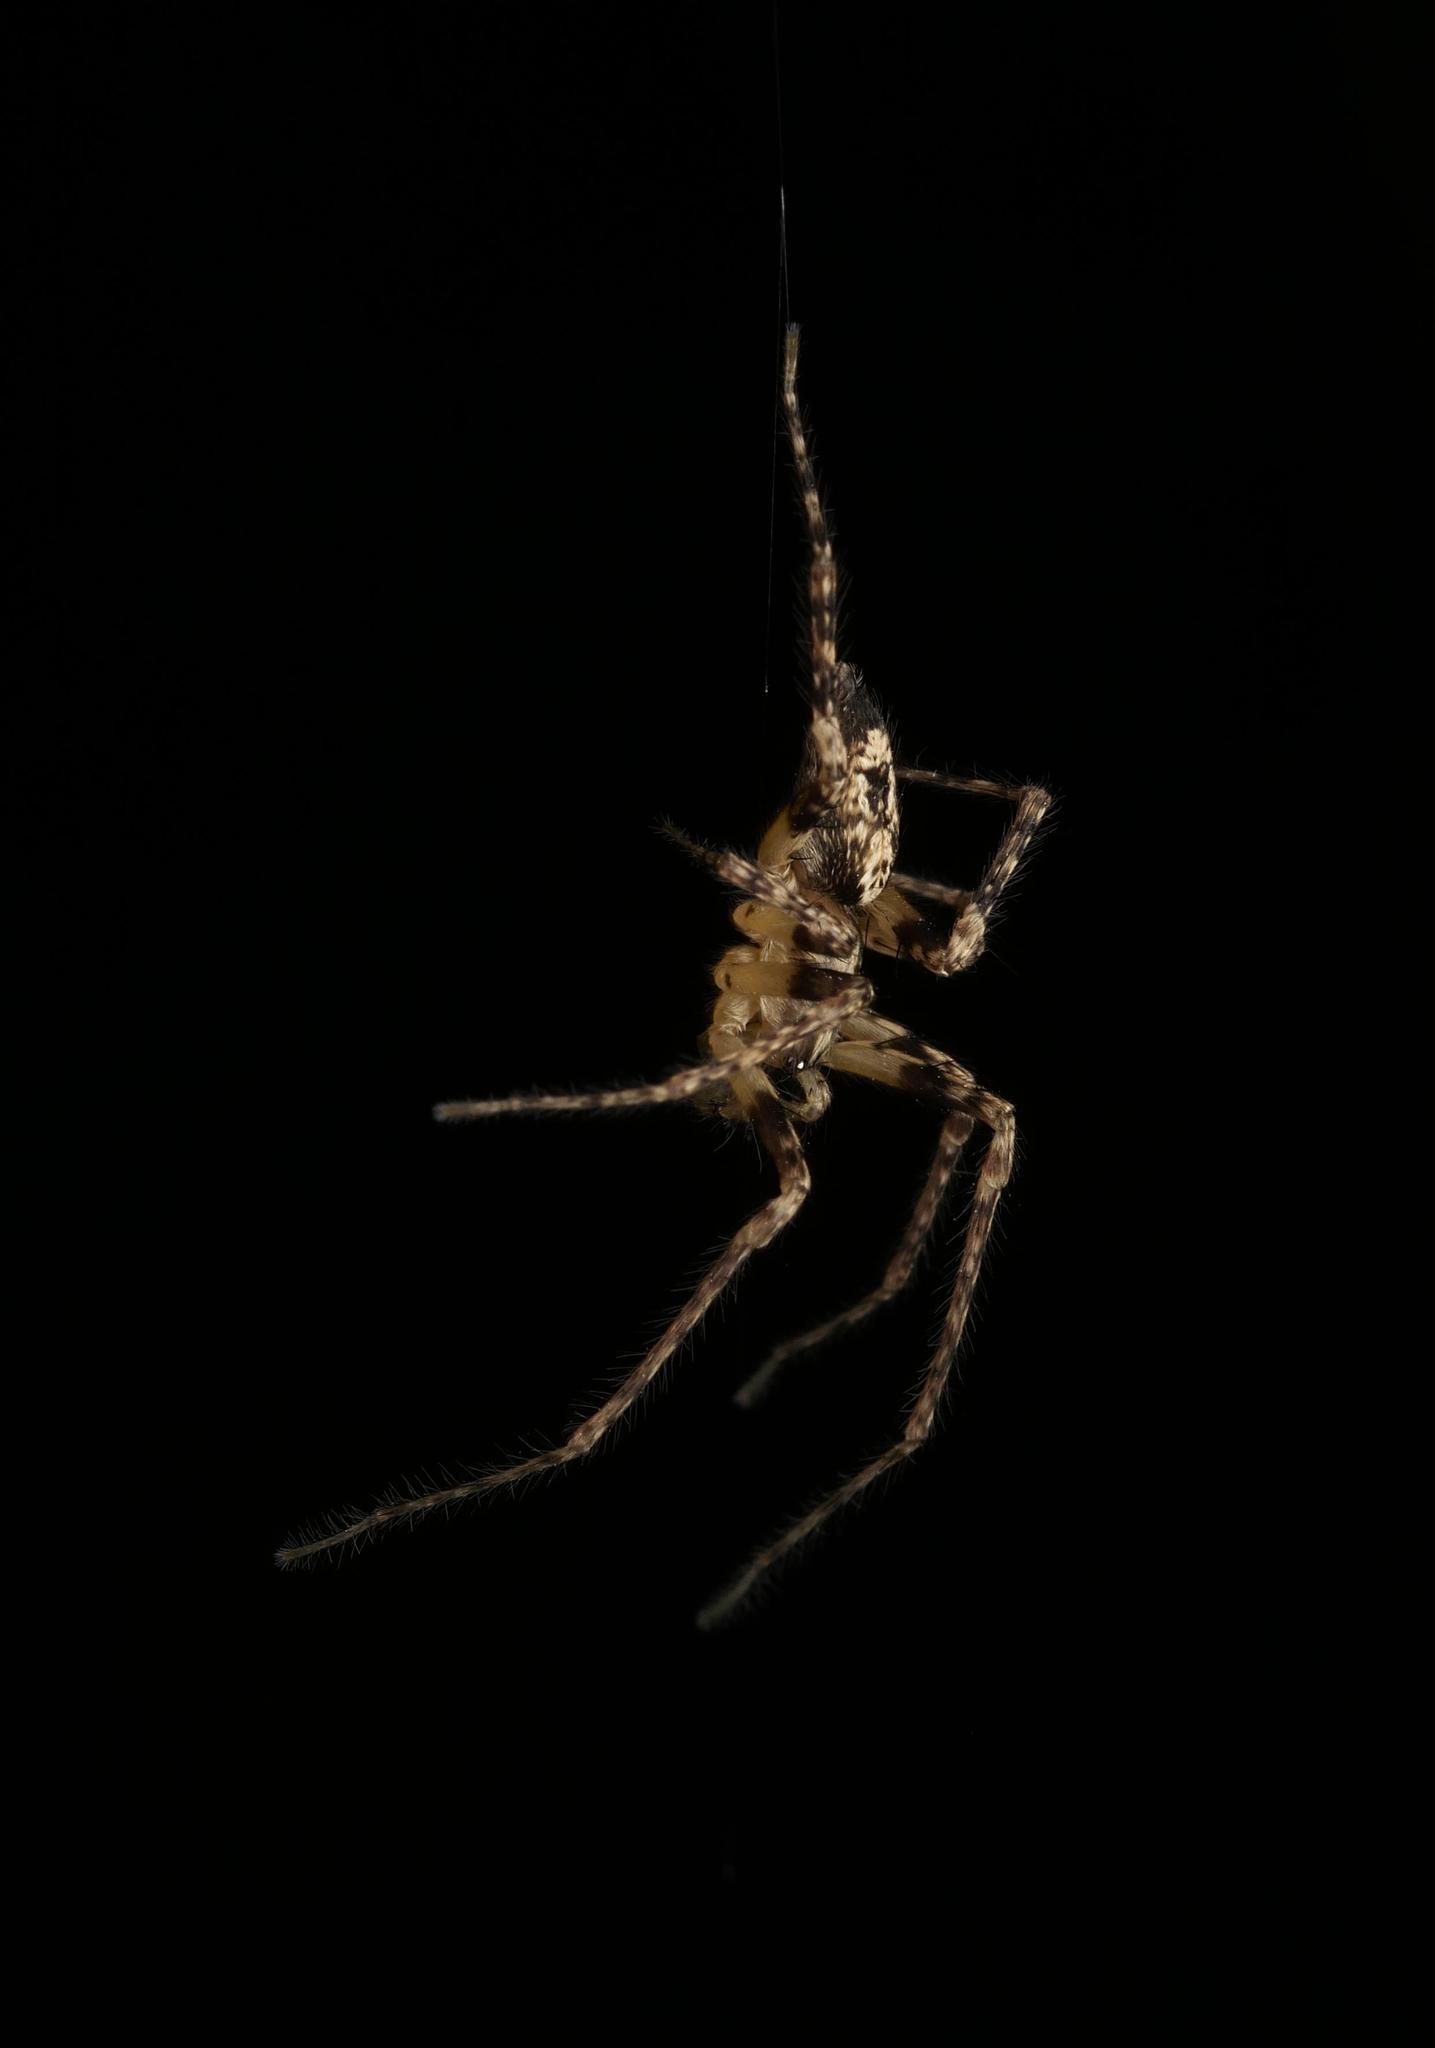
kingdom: Animalia
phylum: Arthropoda
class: Arachnida
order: Araneae
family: Anyphaenidae
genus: Anyphaena
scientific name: Anyphaena accentuata
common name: Buzzing spider
